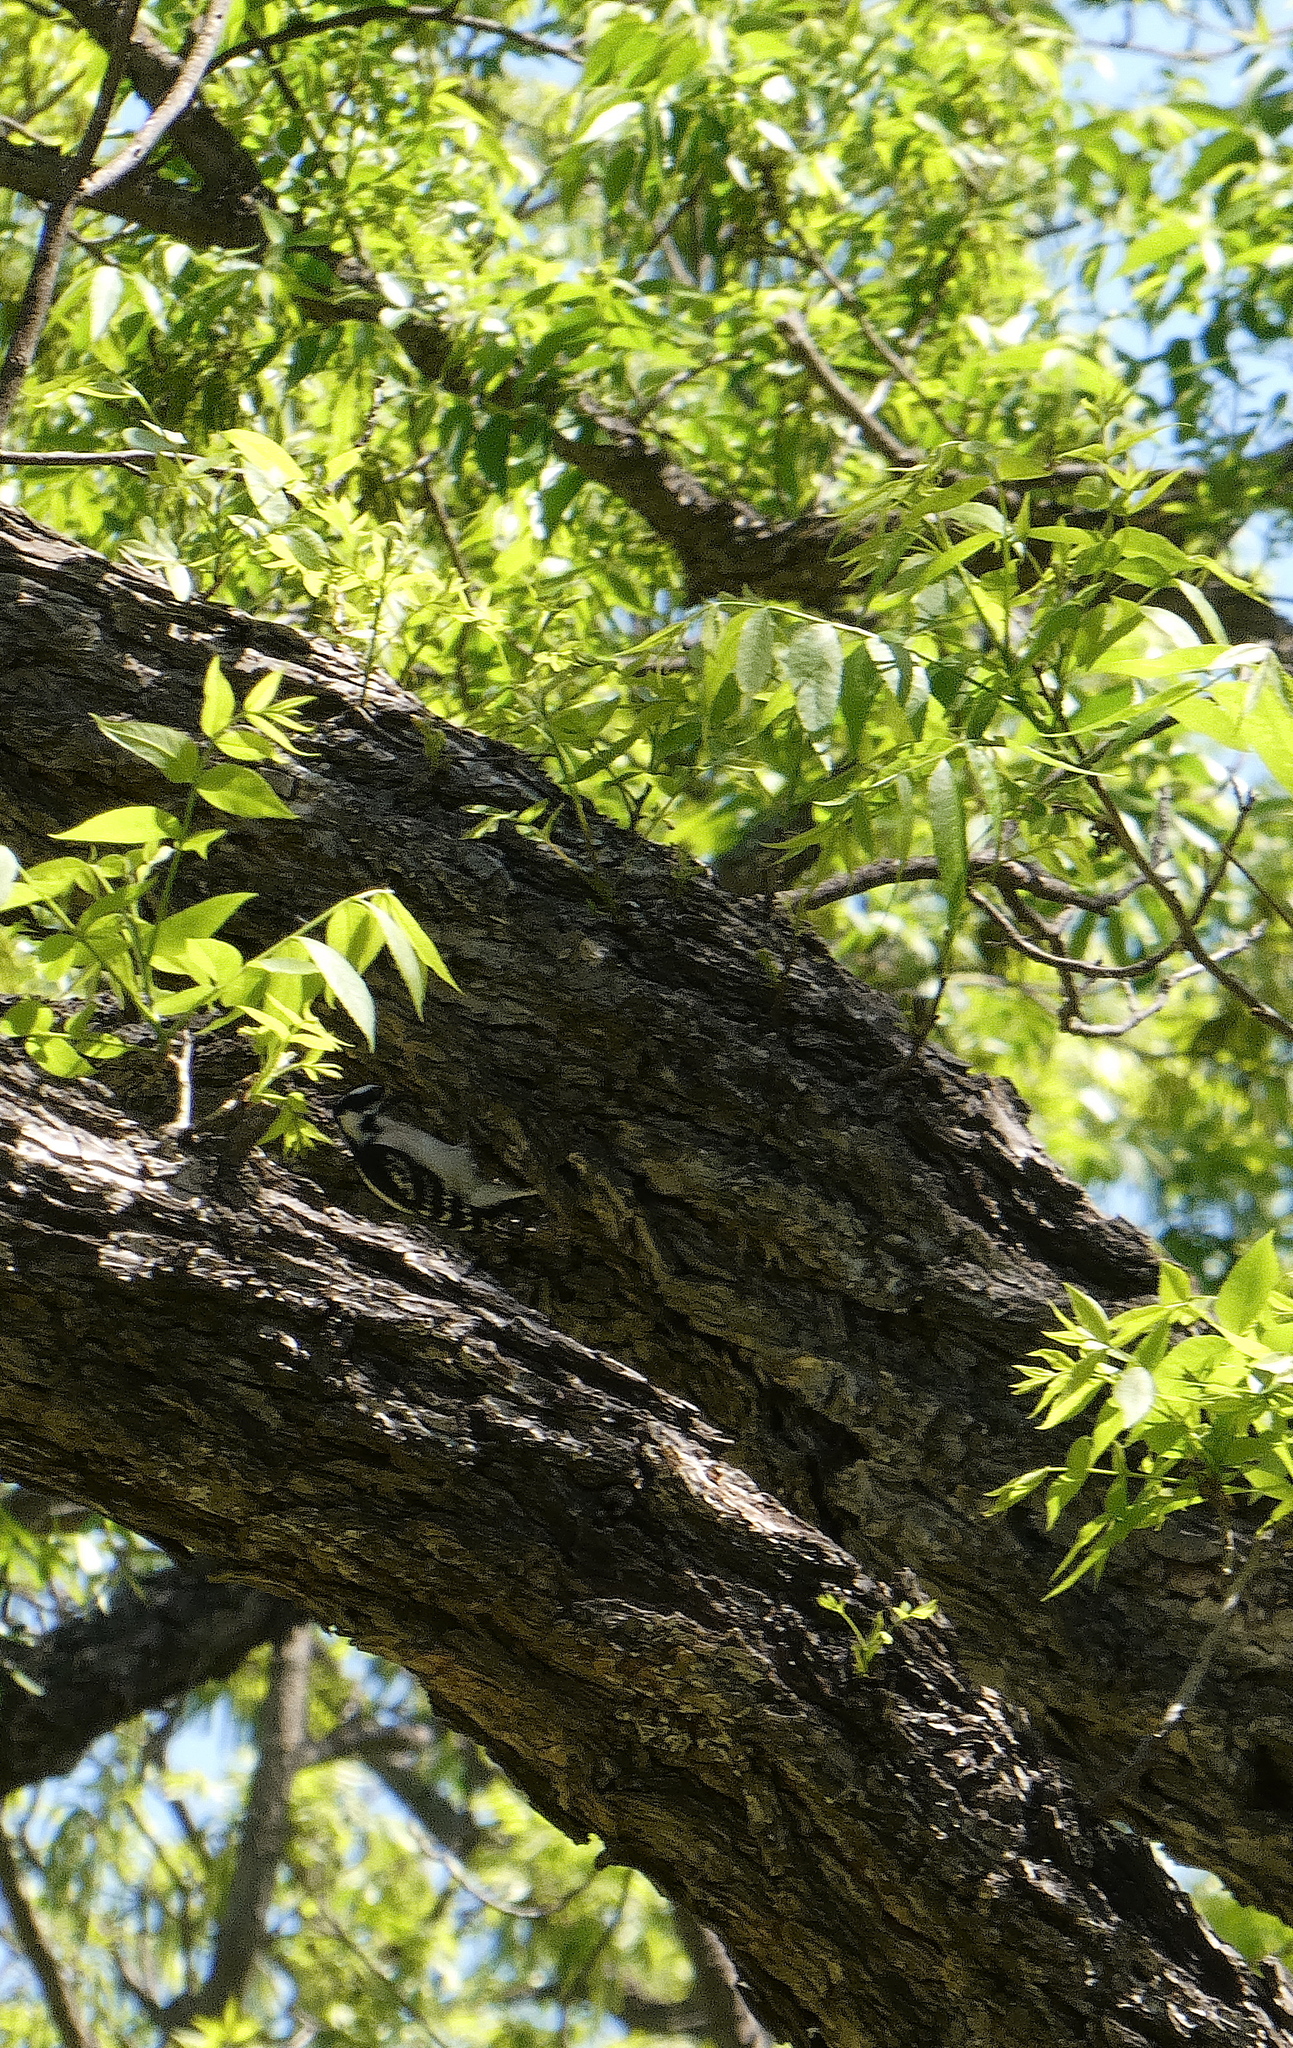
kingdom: Animalia
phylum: Chordata
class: Aves
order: Piciformes
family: Picidae
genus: Dryobates
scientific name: Dryobates pubescens
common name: Downy woodpecker
